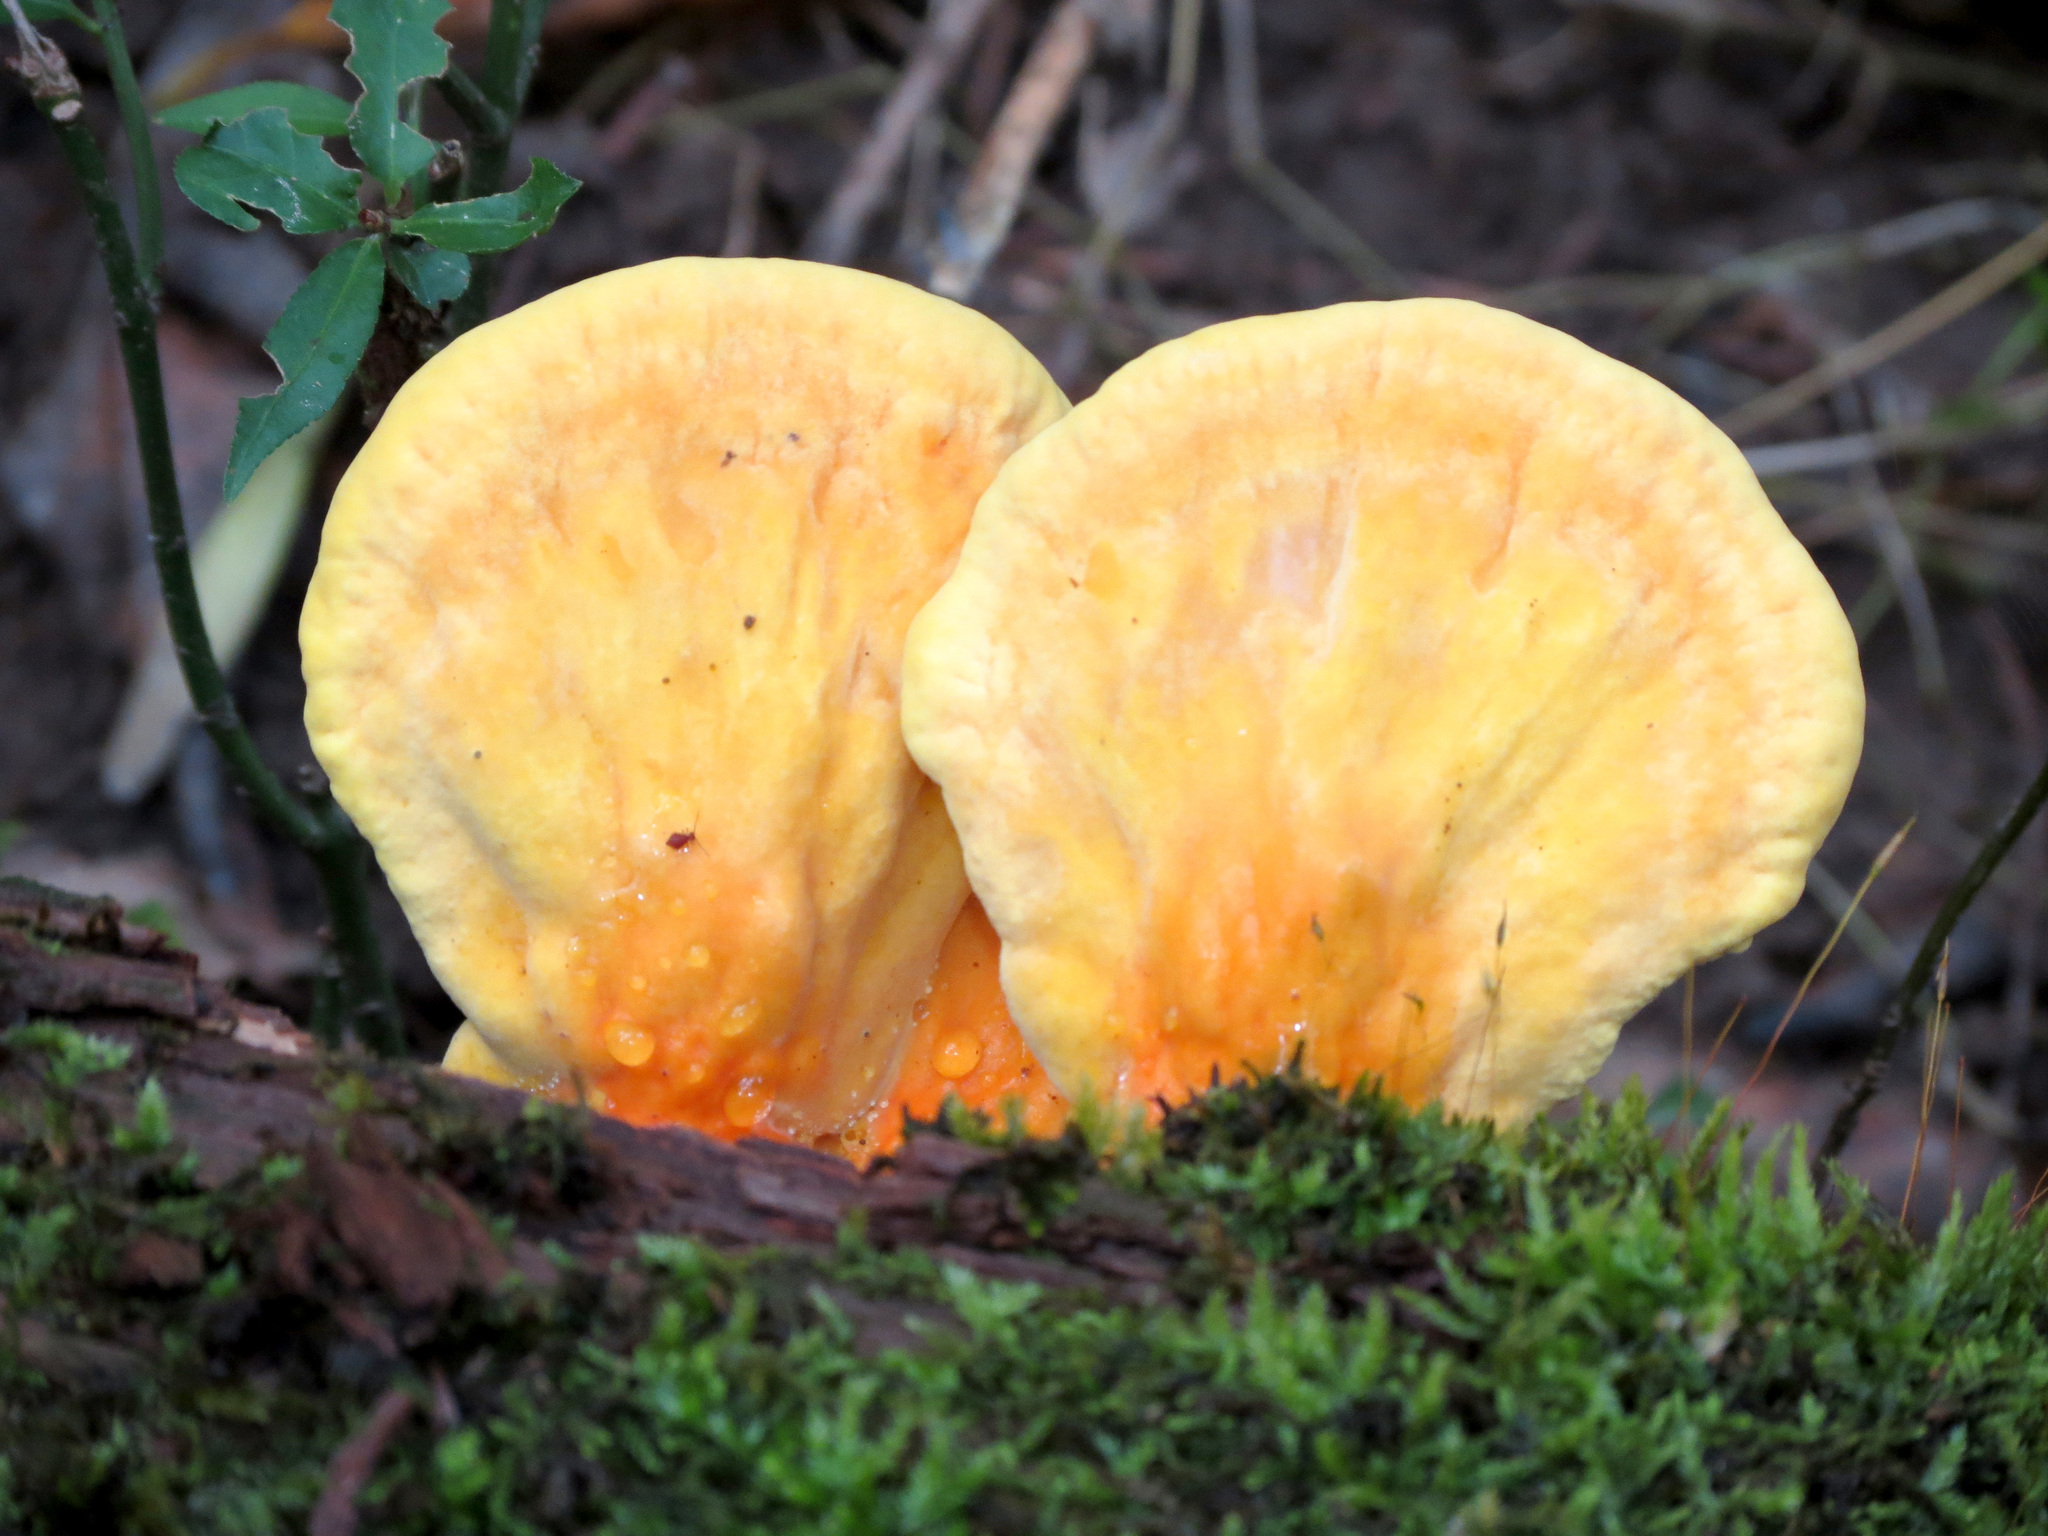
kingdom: Fungi
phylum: Basidiomycota
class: Agaricomycetes
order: Polyporales
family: Laetiporaceae
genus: Laetiporus
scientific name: Laetiporus sulphureus
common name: Chicken of the woods
